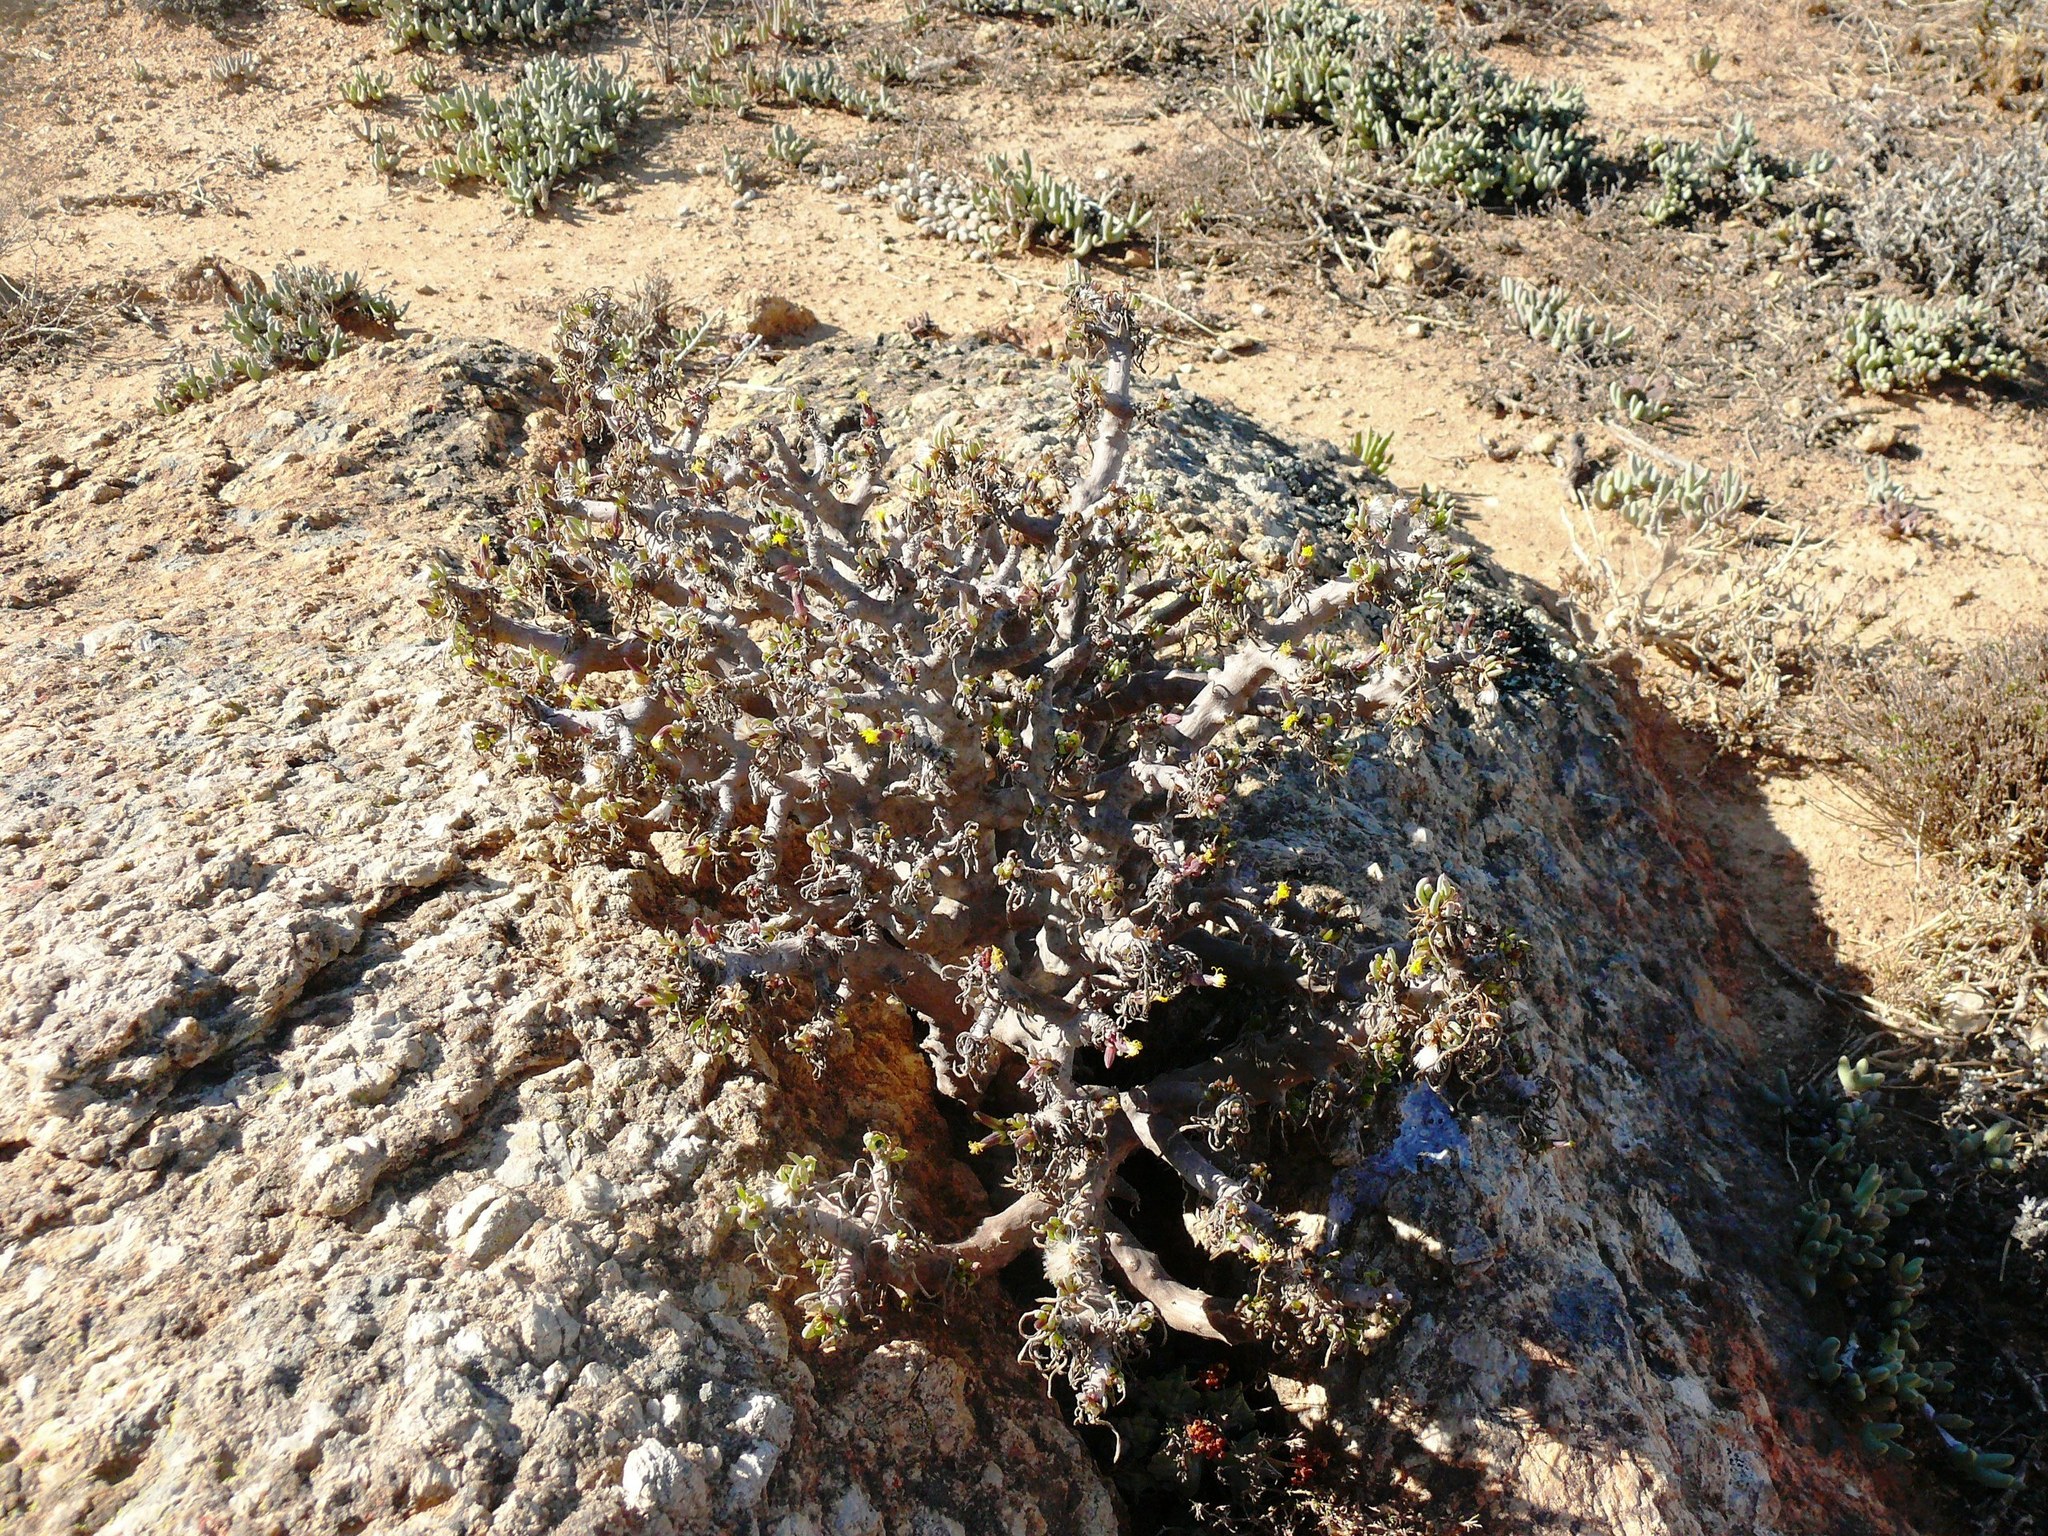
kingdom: Plantae
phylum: Tracheophyta
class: Magnoliopsida
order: Asterales
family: Asteraceae
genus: Senecio
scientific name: Senecio laticipes
